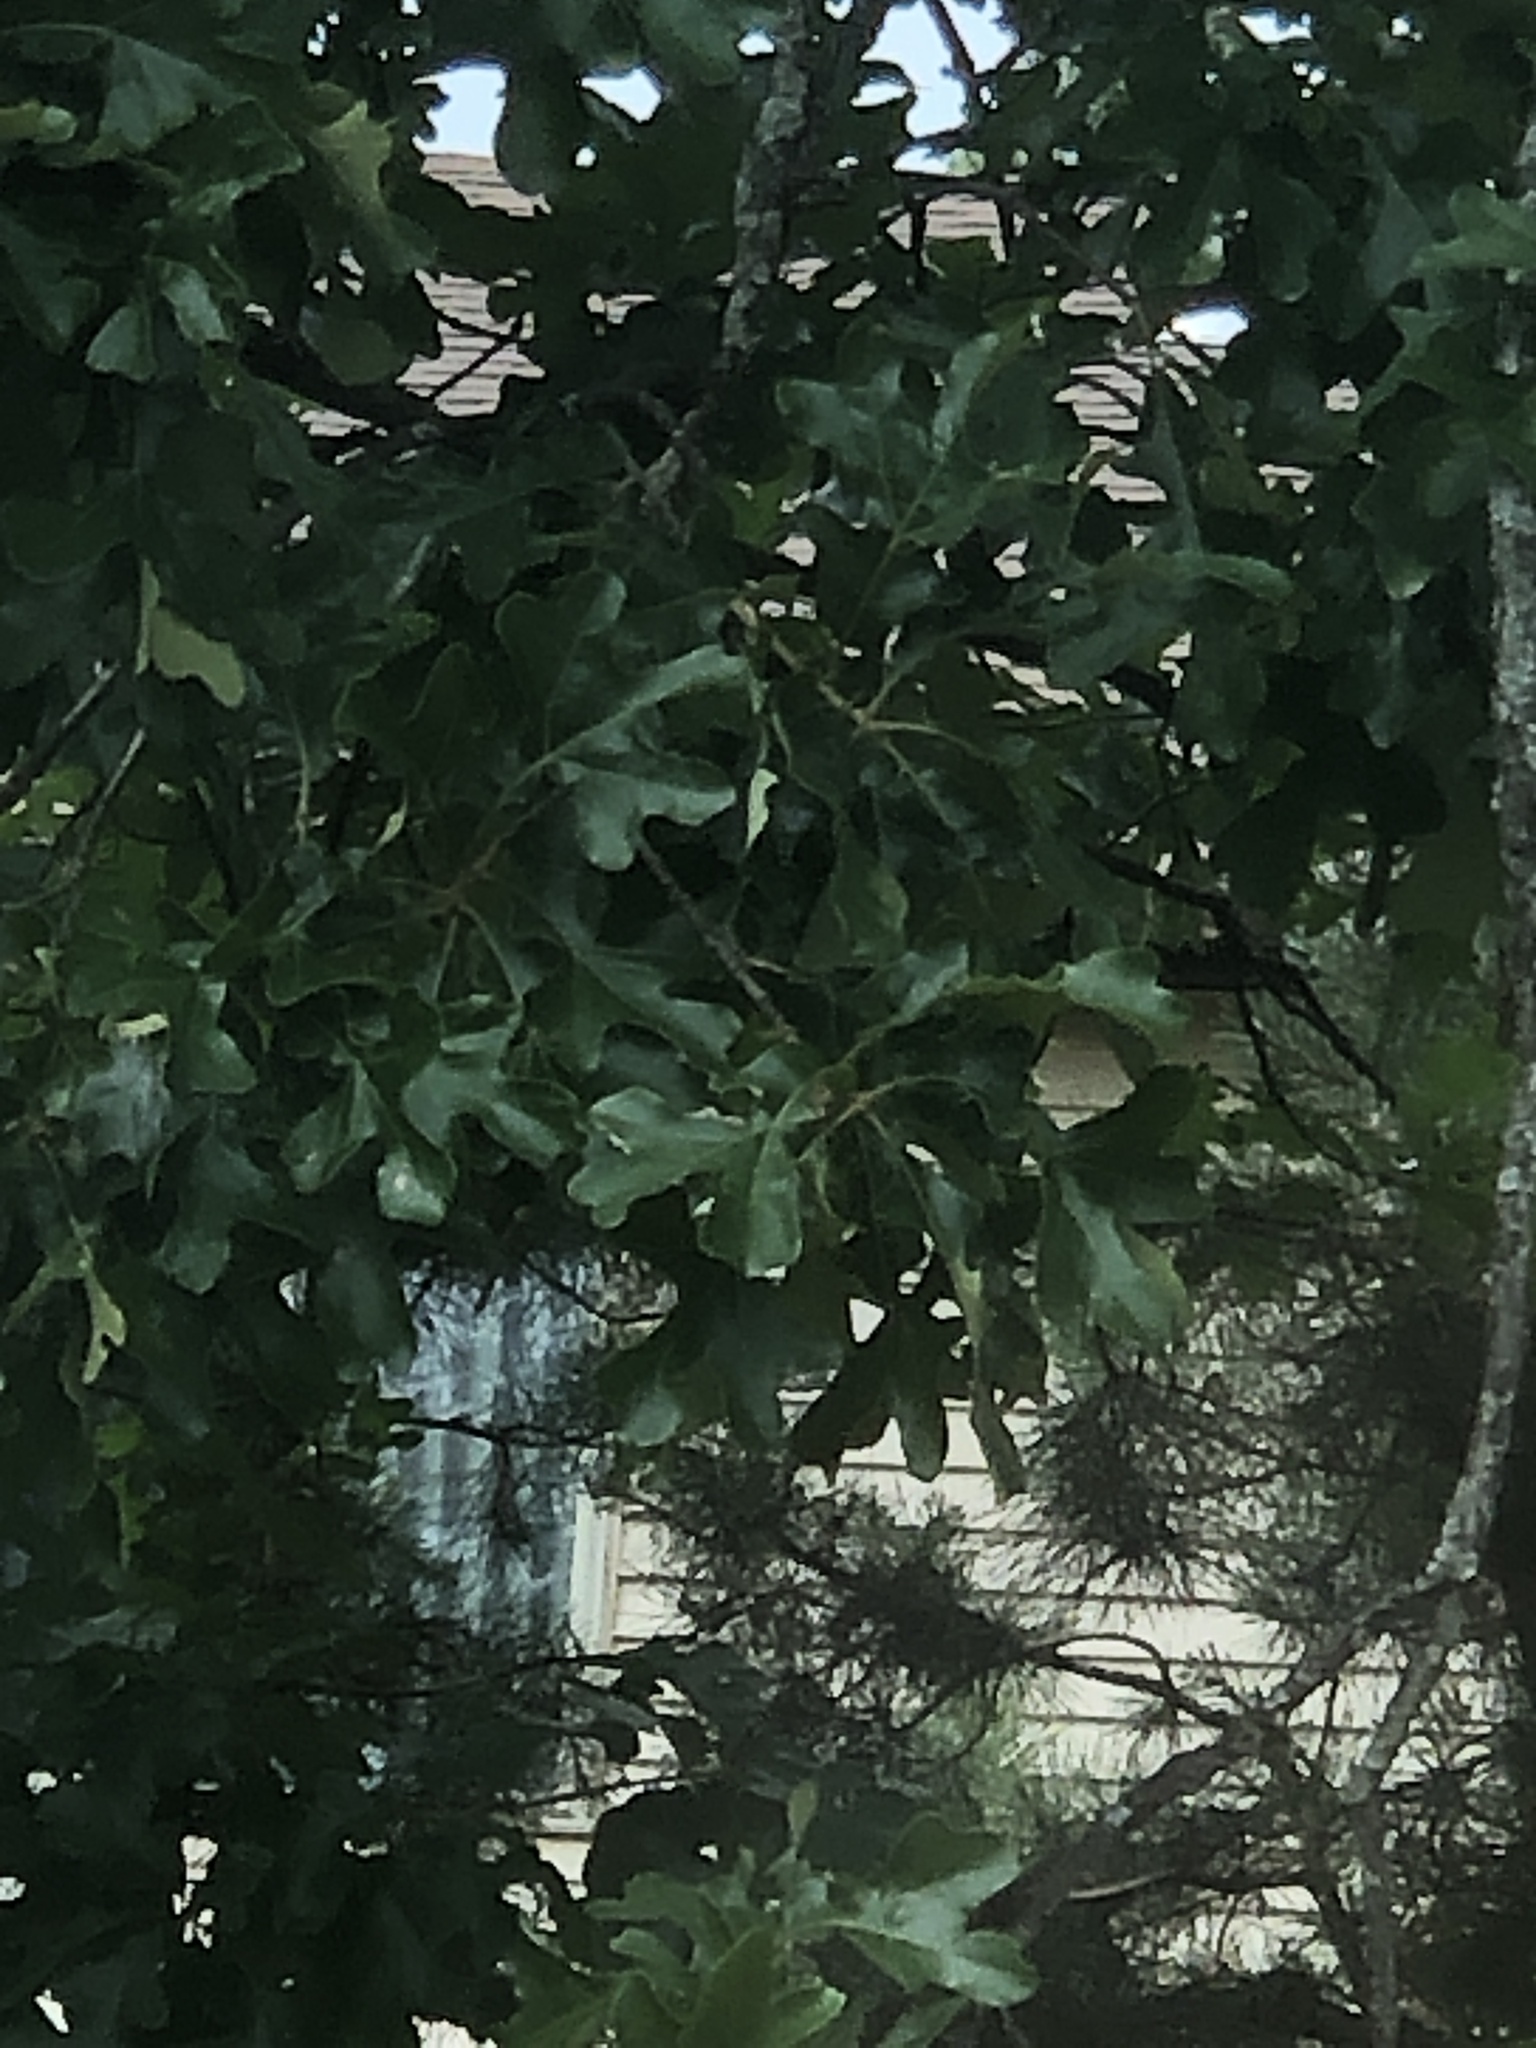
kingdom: Plantae
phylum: Tracheophyta
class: Magnoliopsida
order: Fagales
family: Fagaceae
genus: Quercus
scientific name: Quercus stellata
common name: Post oak
